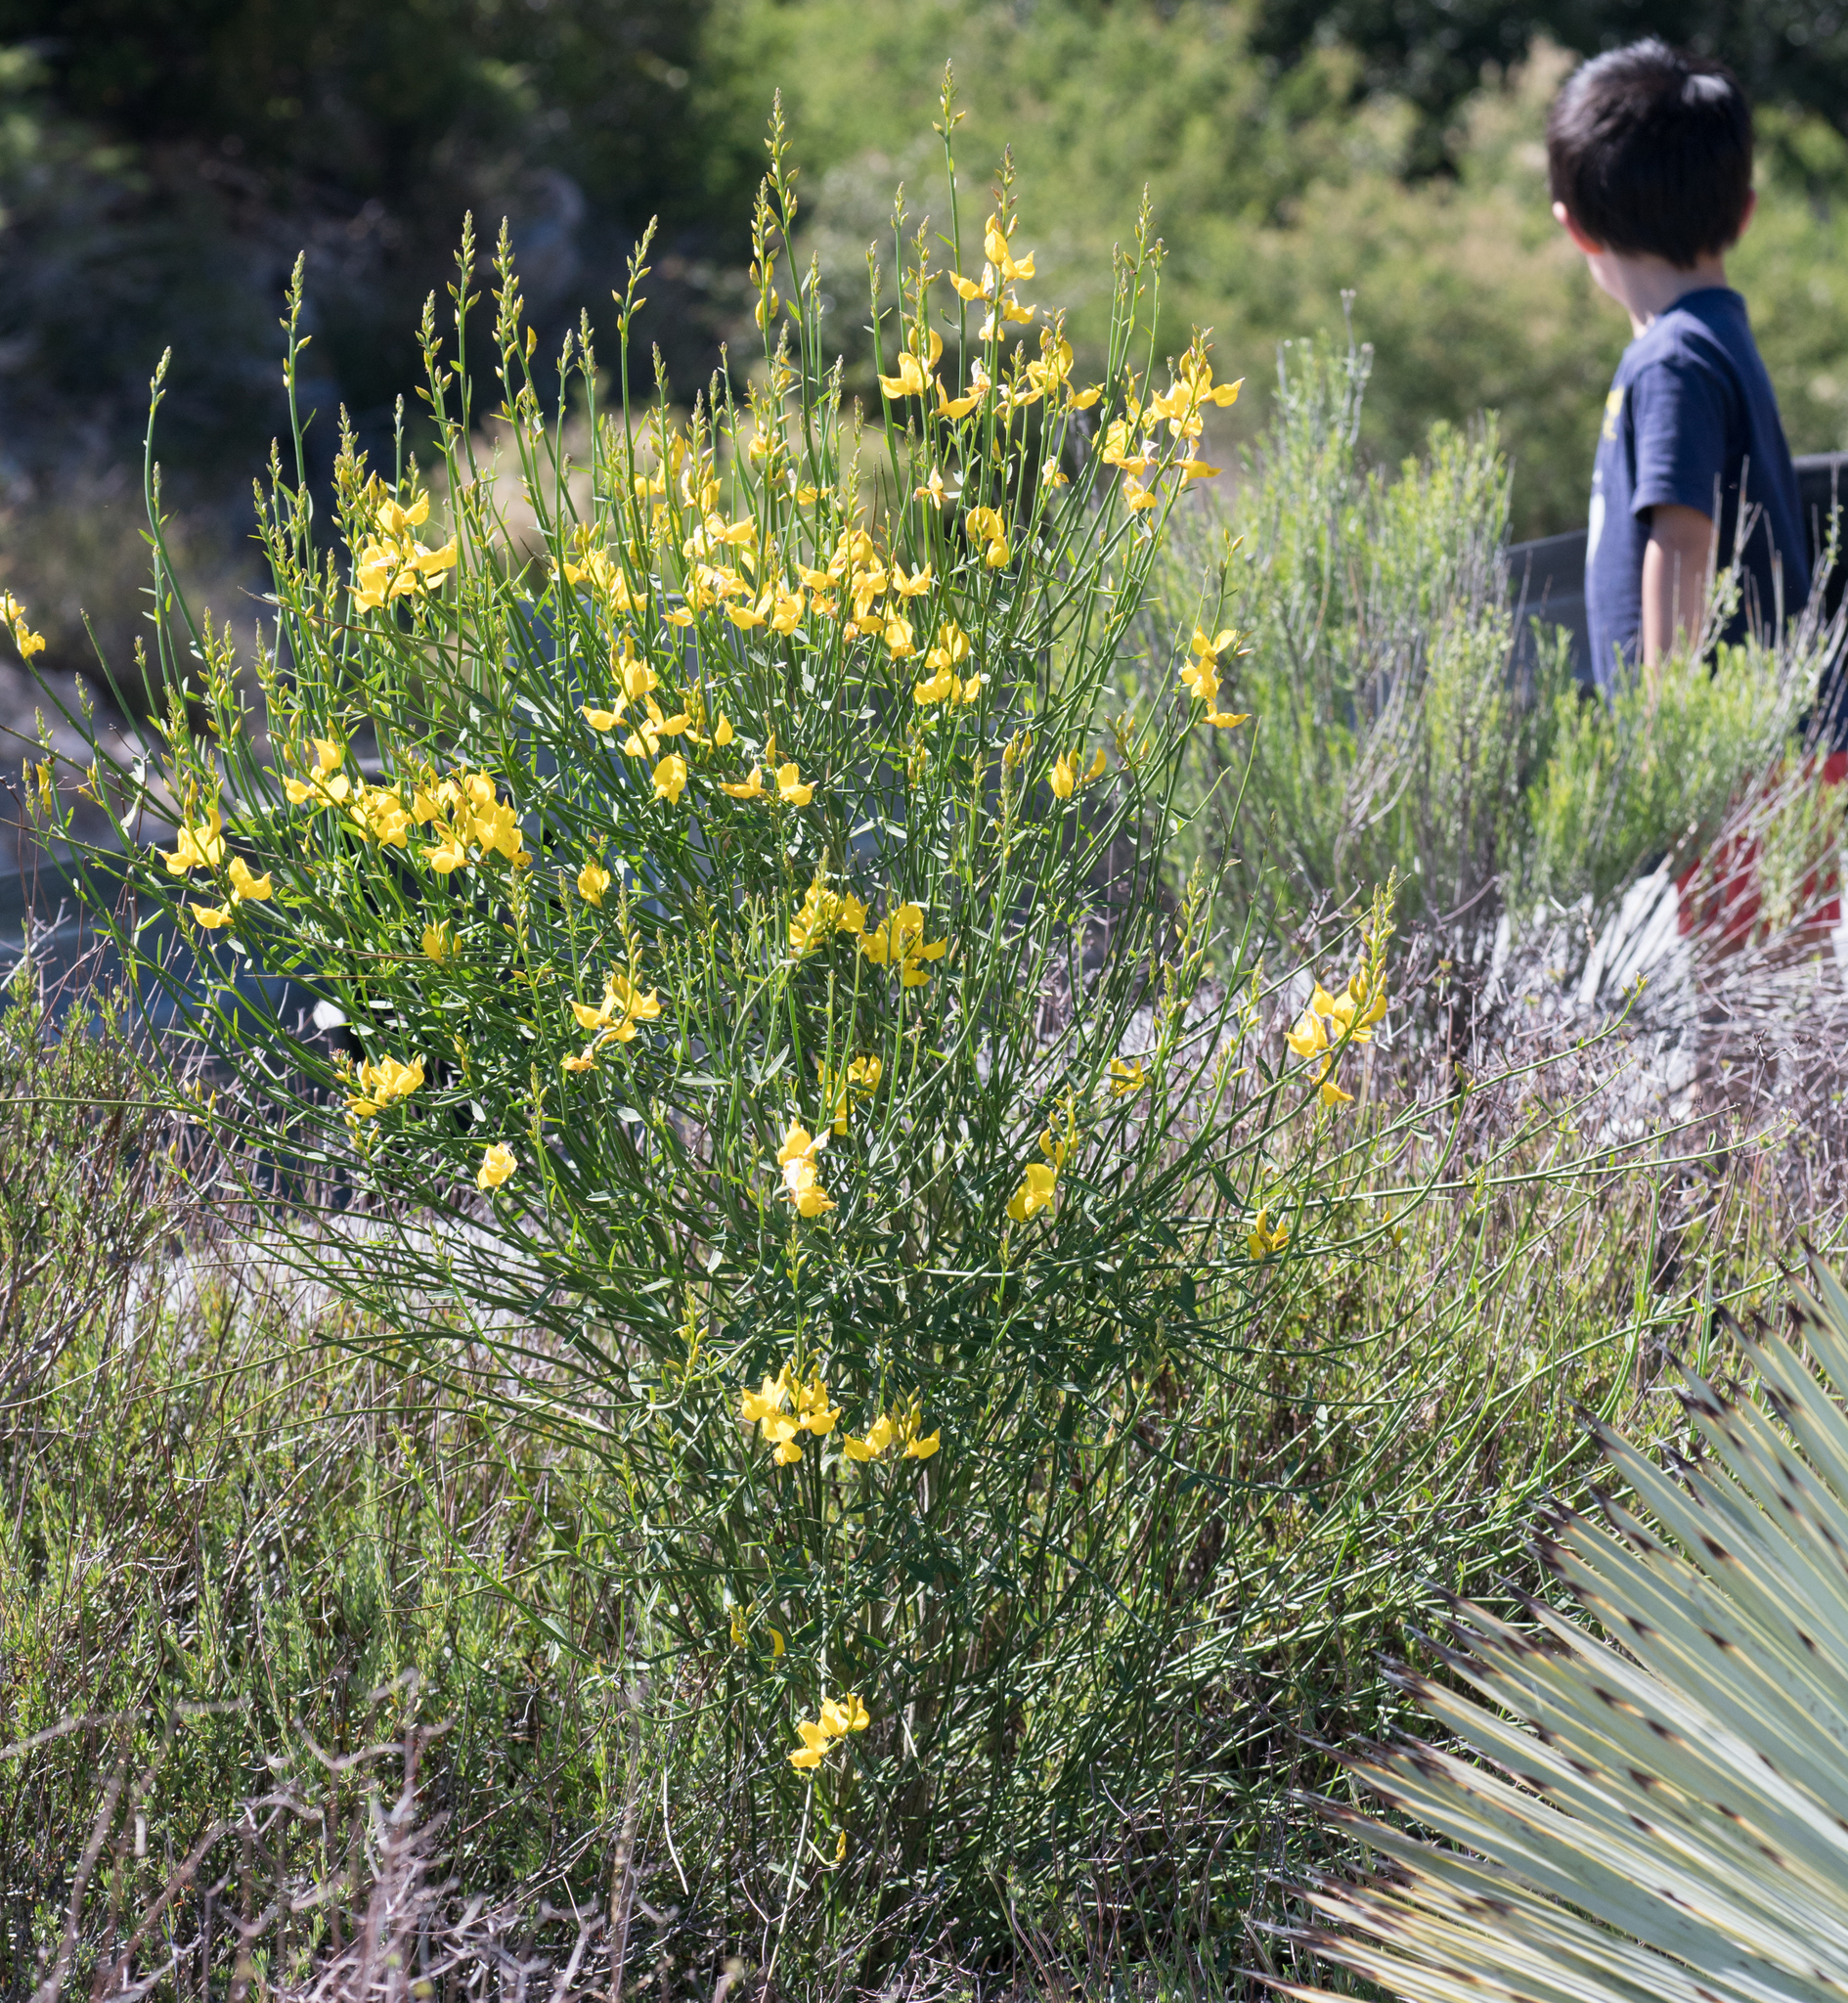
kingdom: Plantae
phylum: Tracheophyta
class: Magnoliopsida
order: Fabales
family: Fabaceae
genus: Spartium
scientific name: Spartium junceum
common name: Spanish broom
